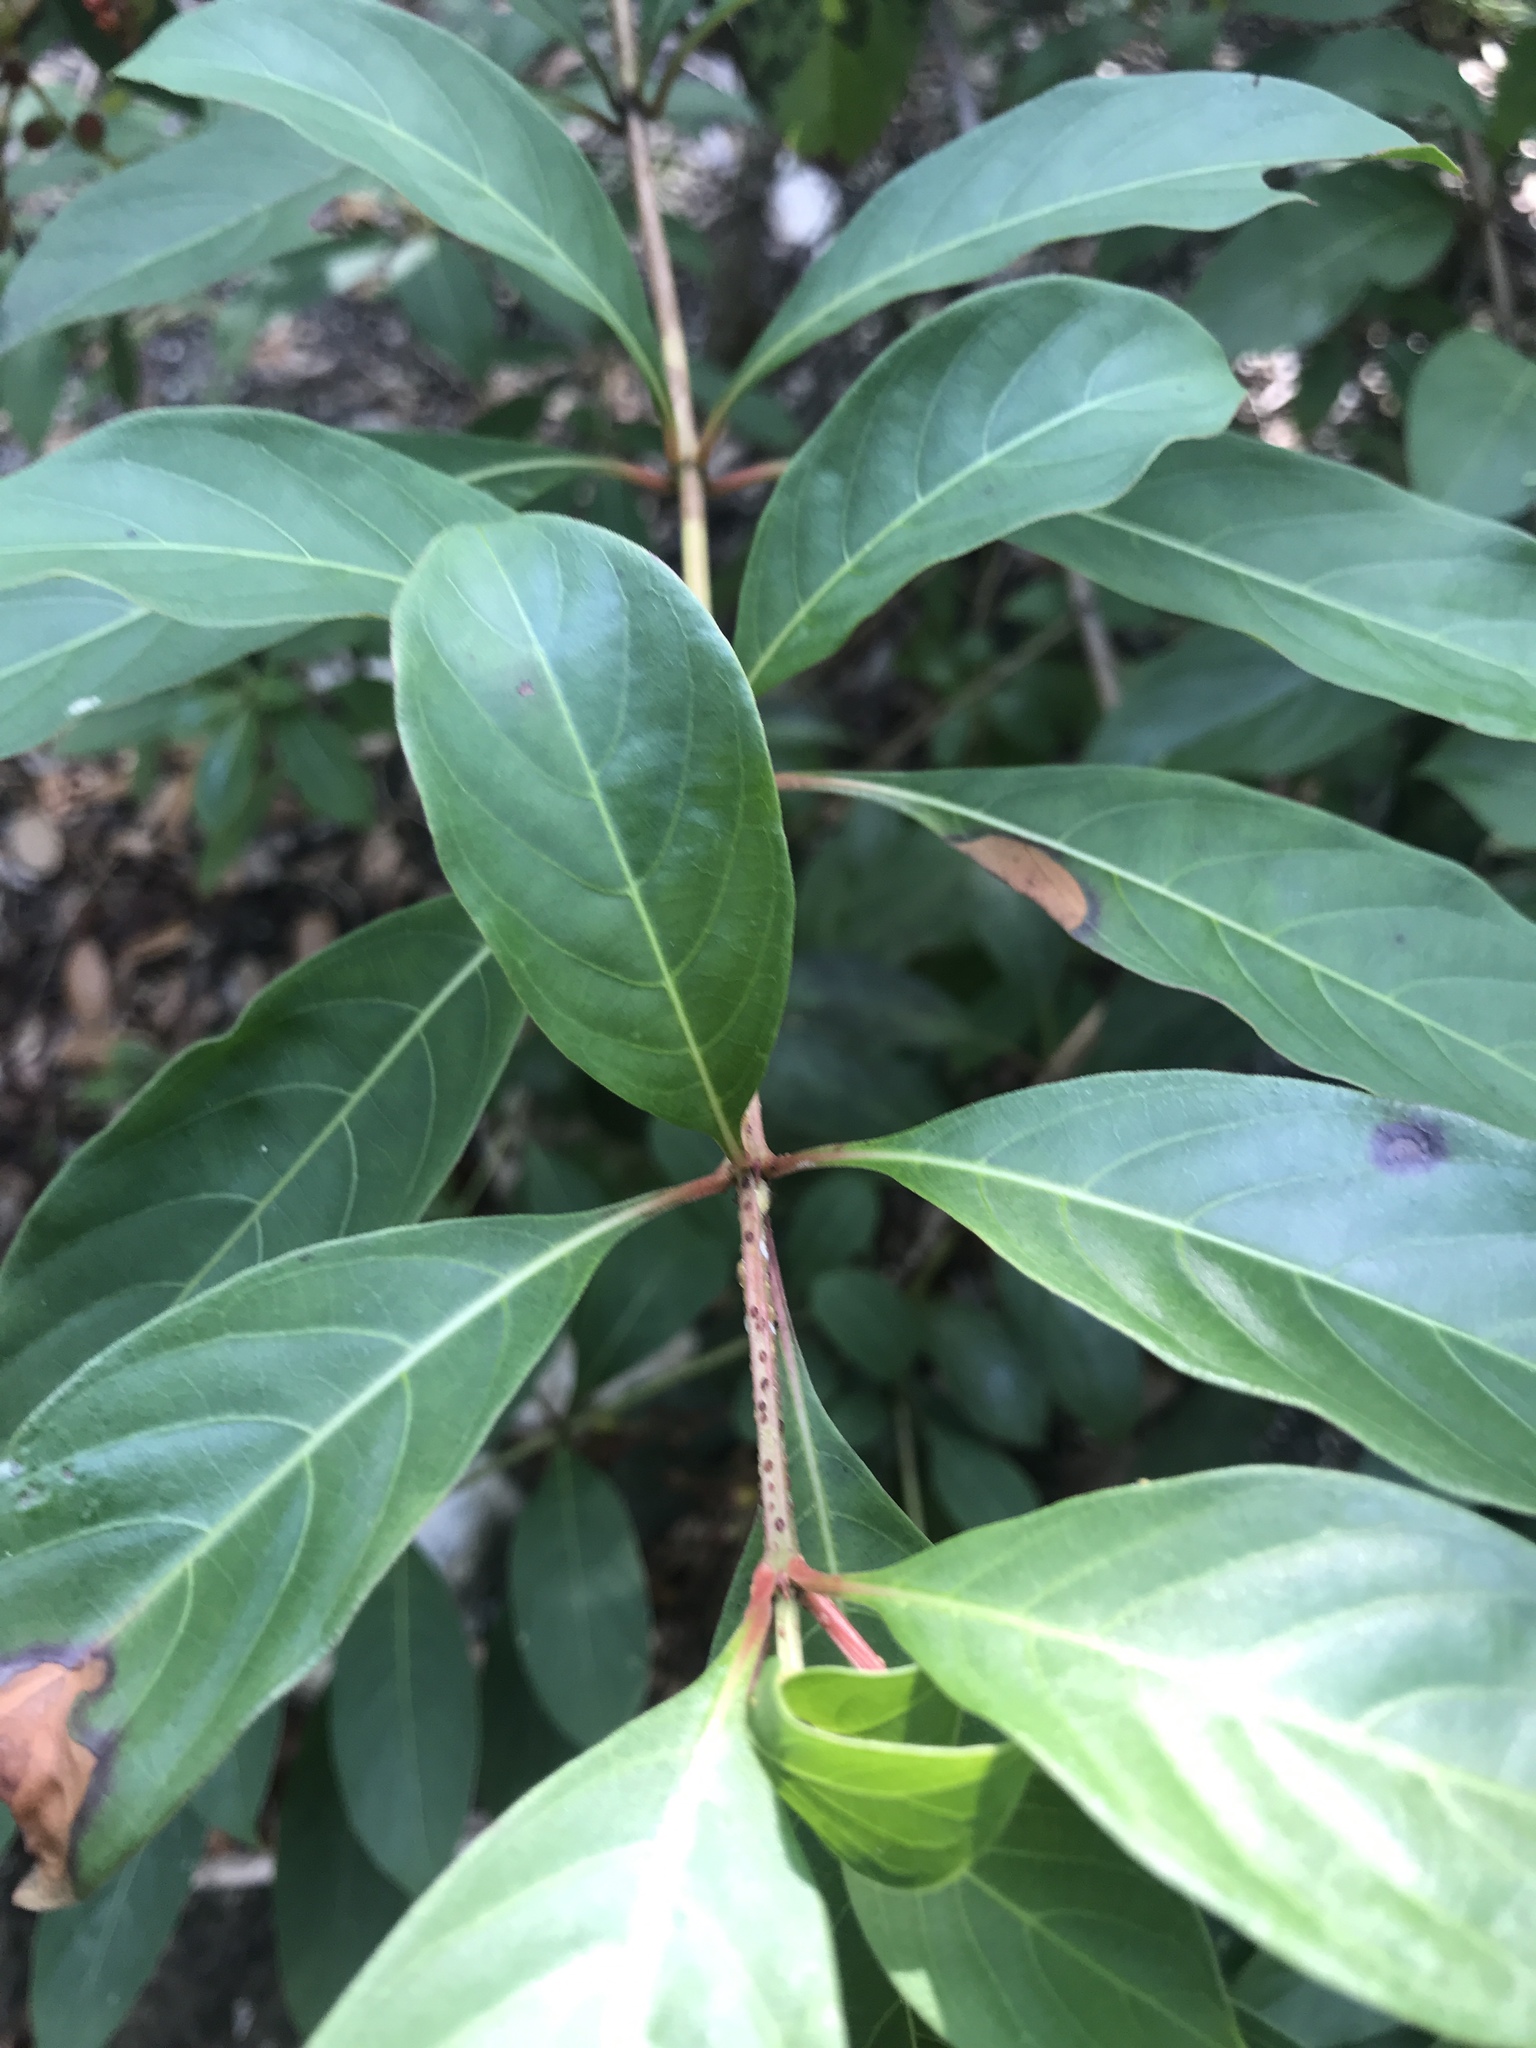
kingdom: Plantae
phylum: Tracheophyta
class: Magnoliopsida
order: Gentianales
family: Rubiaceae
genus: Hamelia
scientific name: Hamelia patens
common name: Redhead
